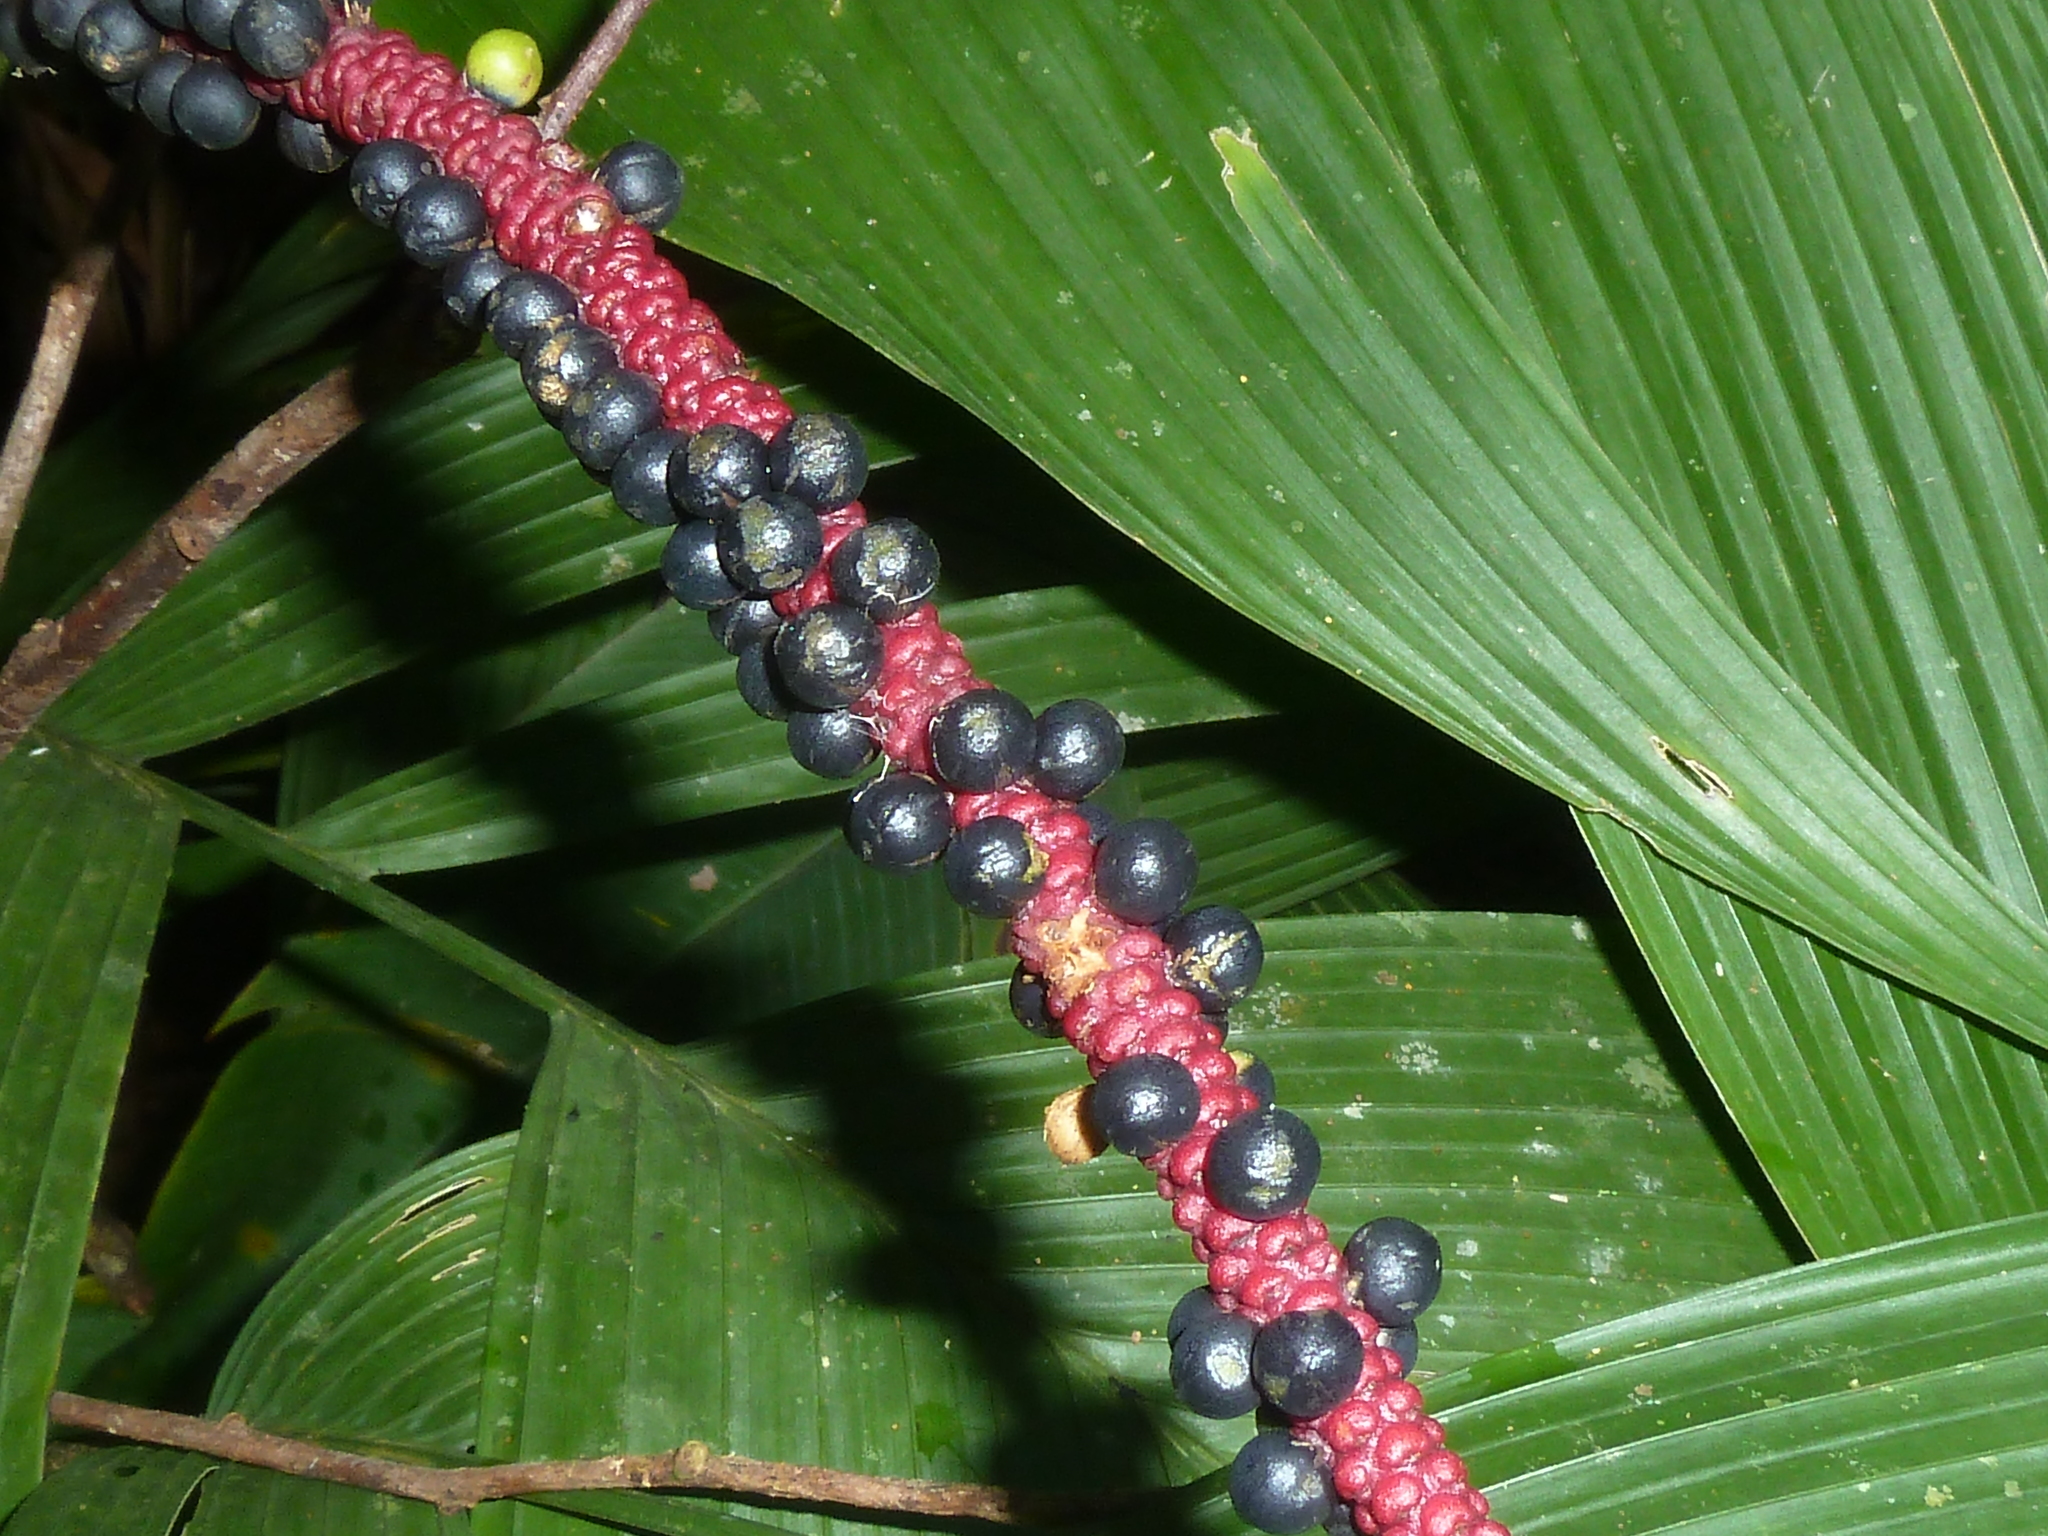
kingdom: Plantae
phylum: Tracheophyta
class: Liliopsida
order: Arecales
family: Arecaceae
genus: Geonoma
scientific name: Geonoma cuneata
